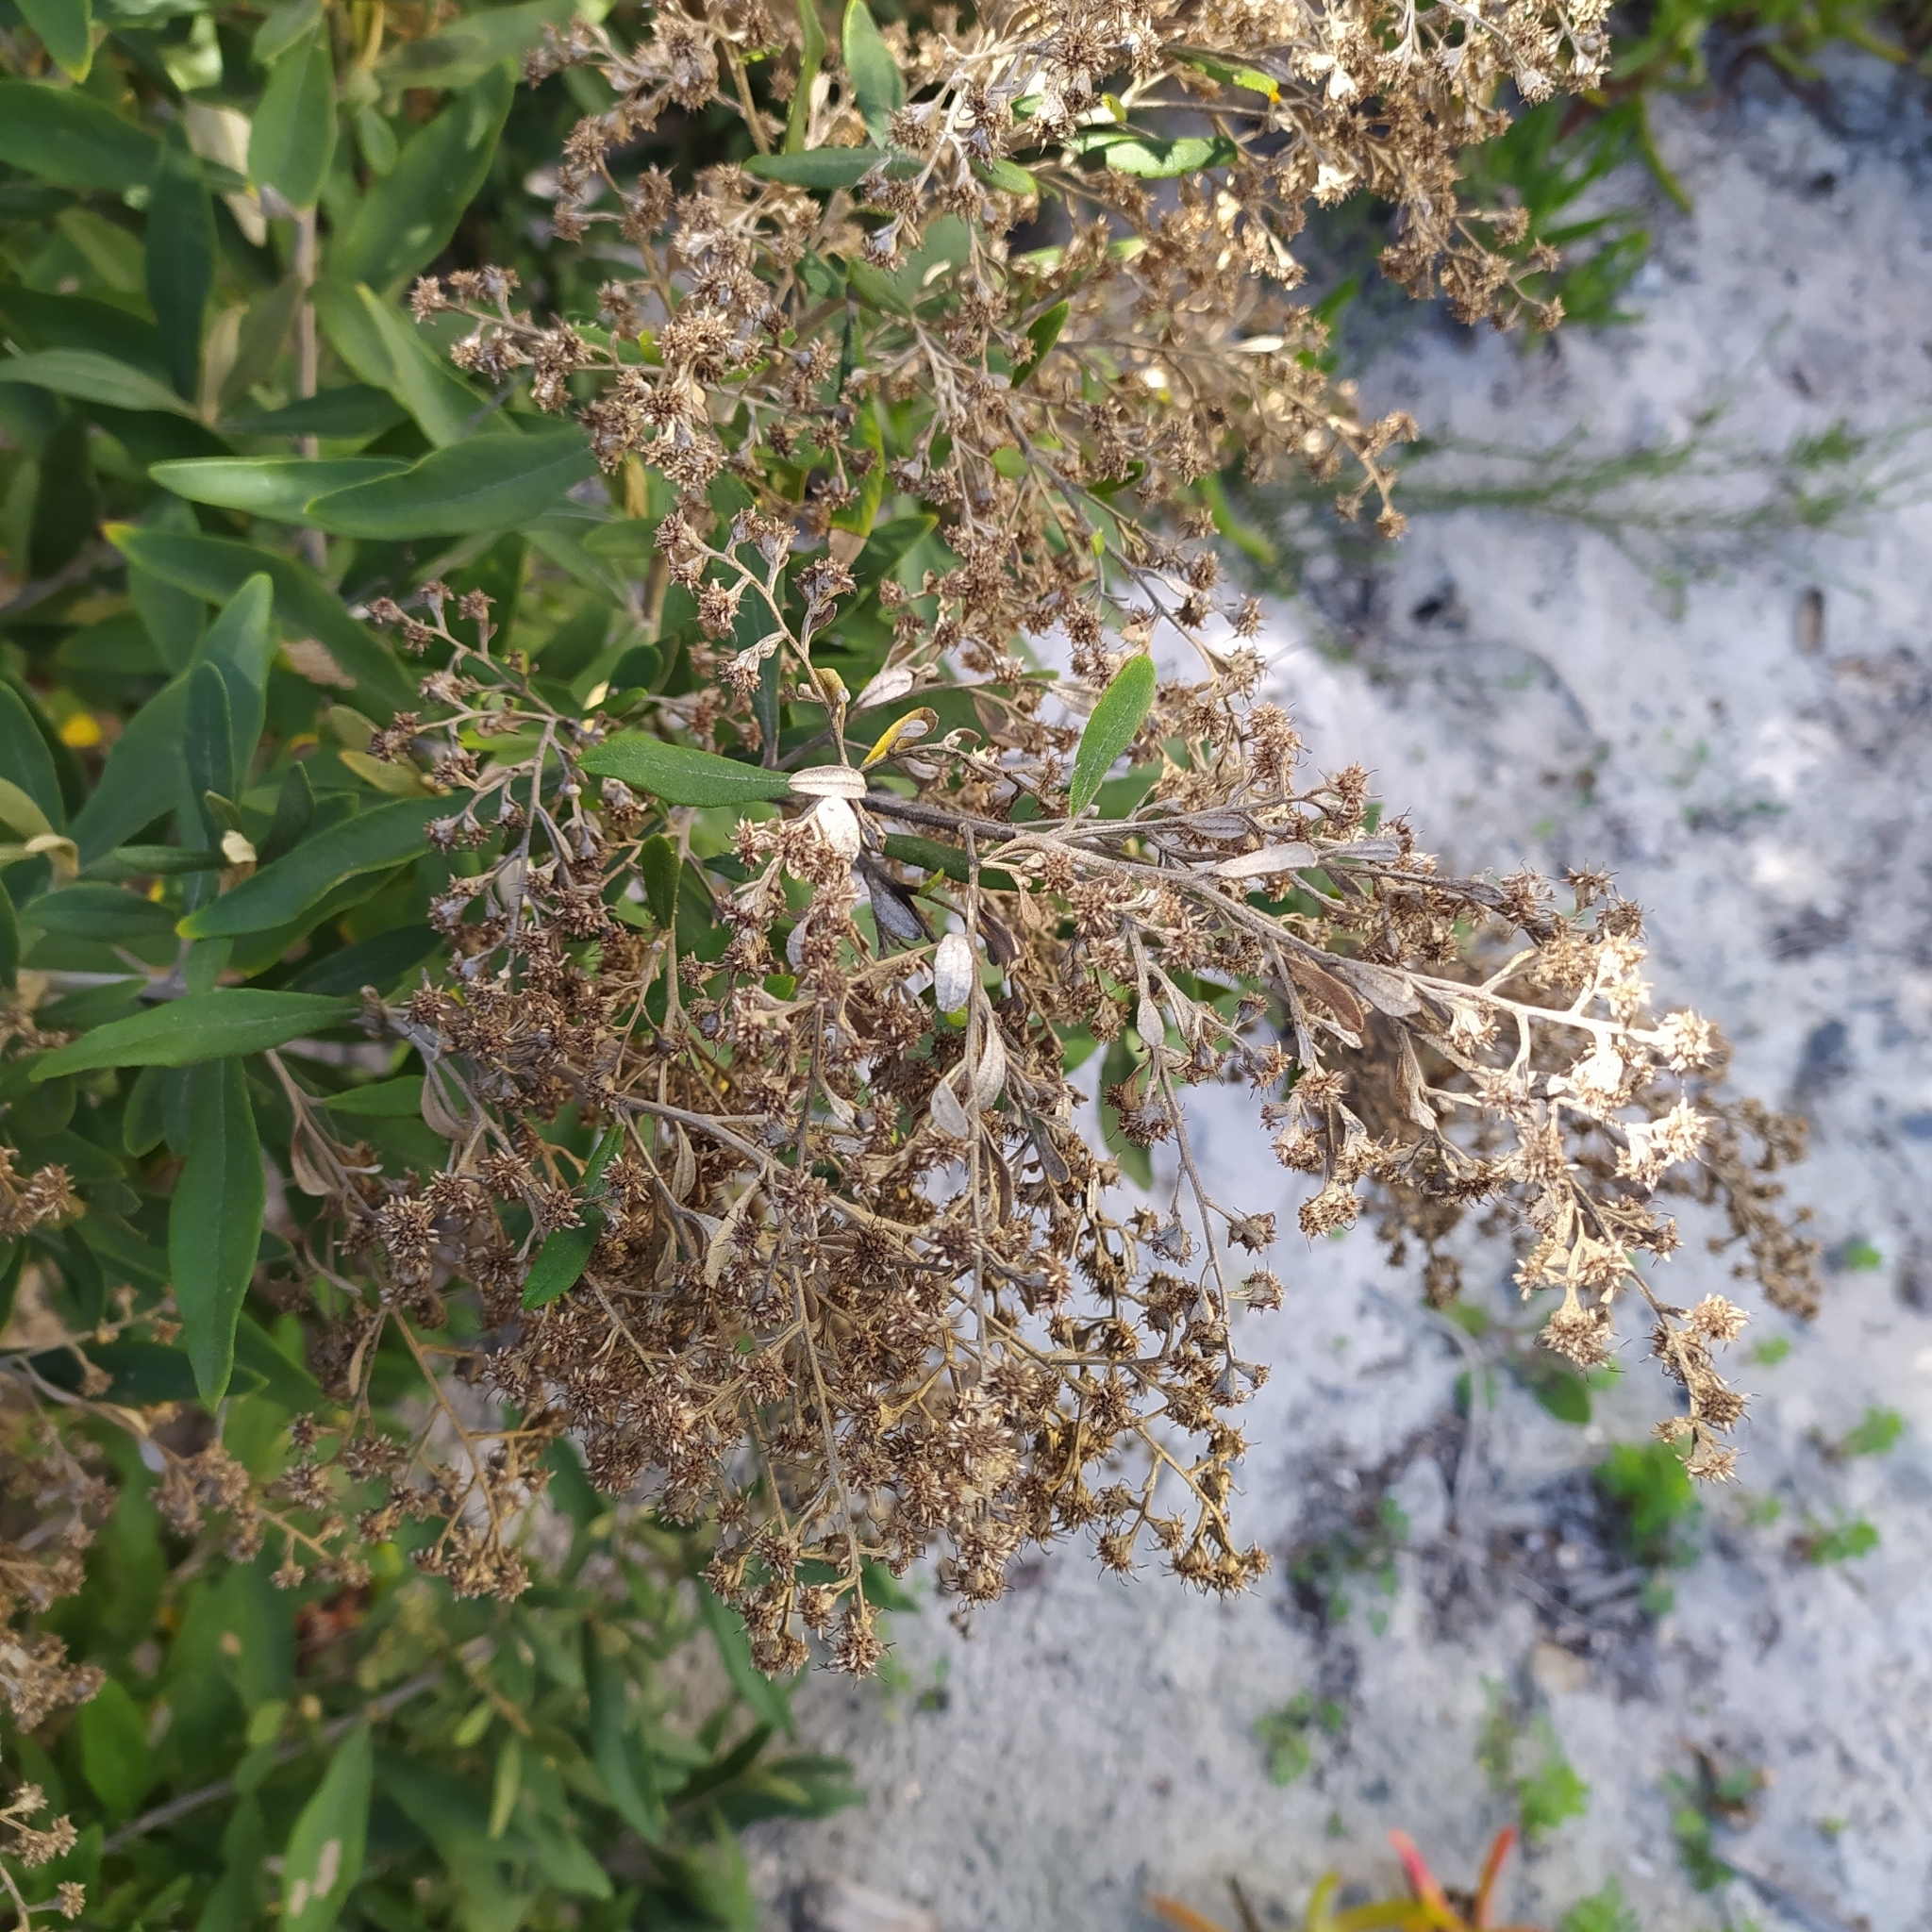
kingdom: Plantae
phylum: Tracheophyta
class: Magnoliopsida
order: Asterales
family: Asteraceae
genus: Tarchonanthus
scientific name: Tarchonanthus littoralis
